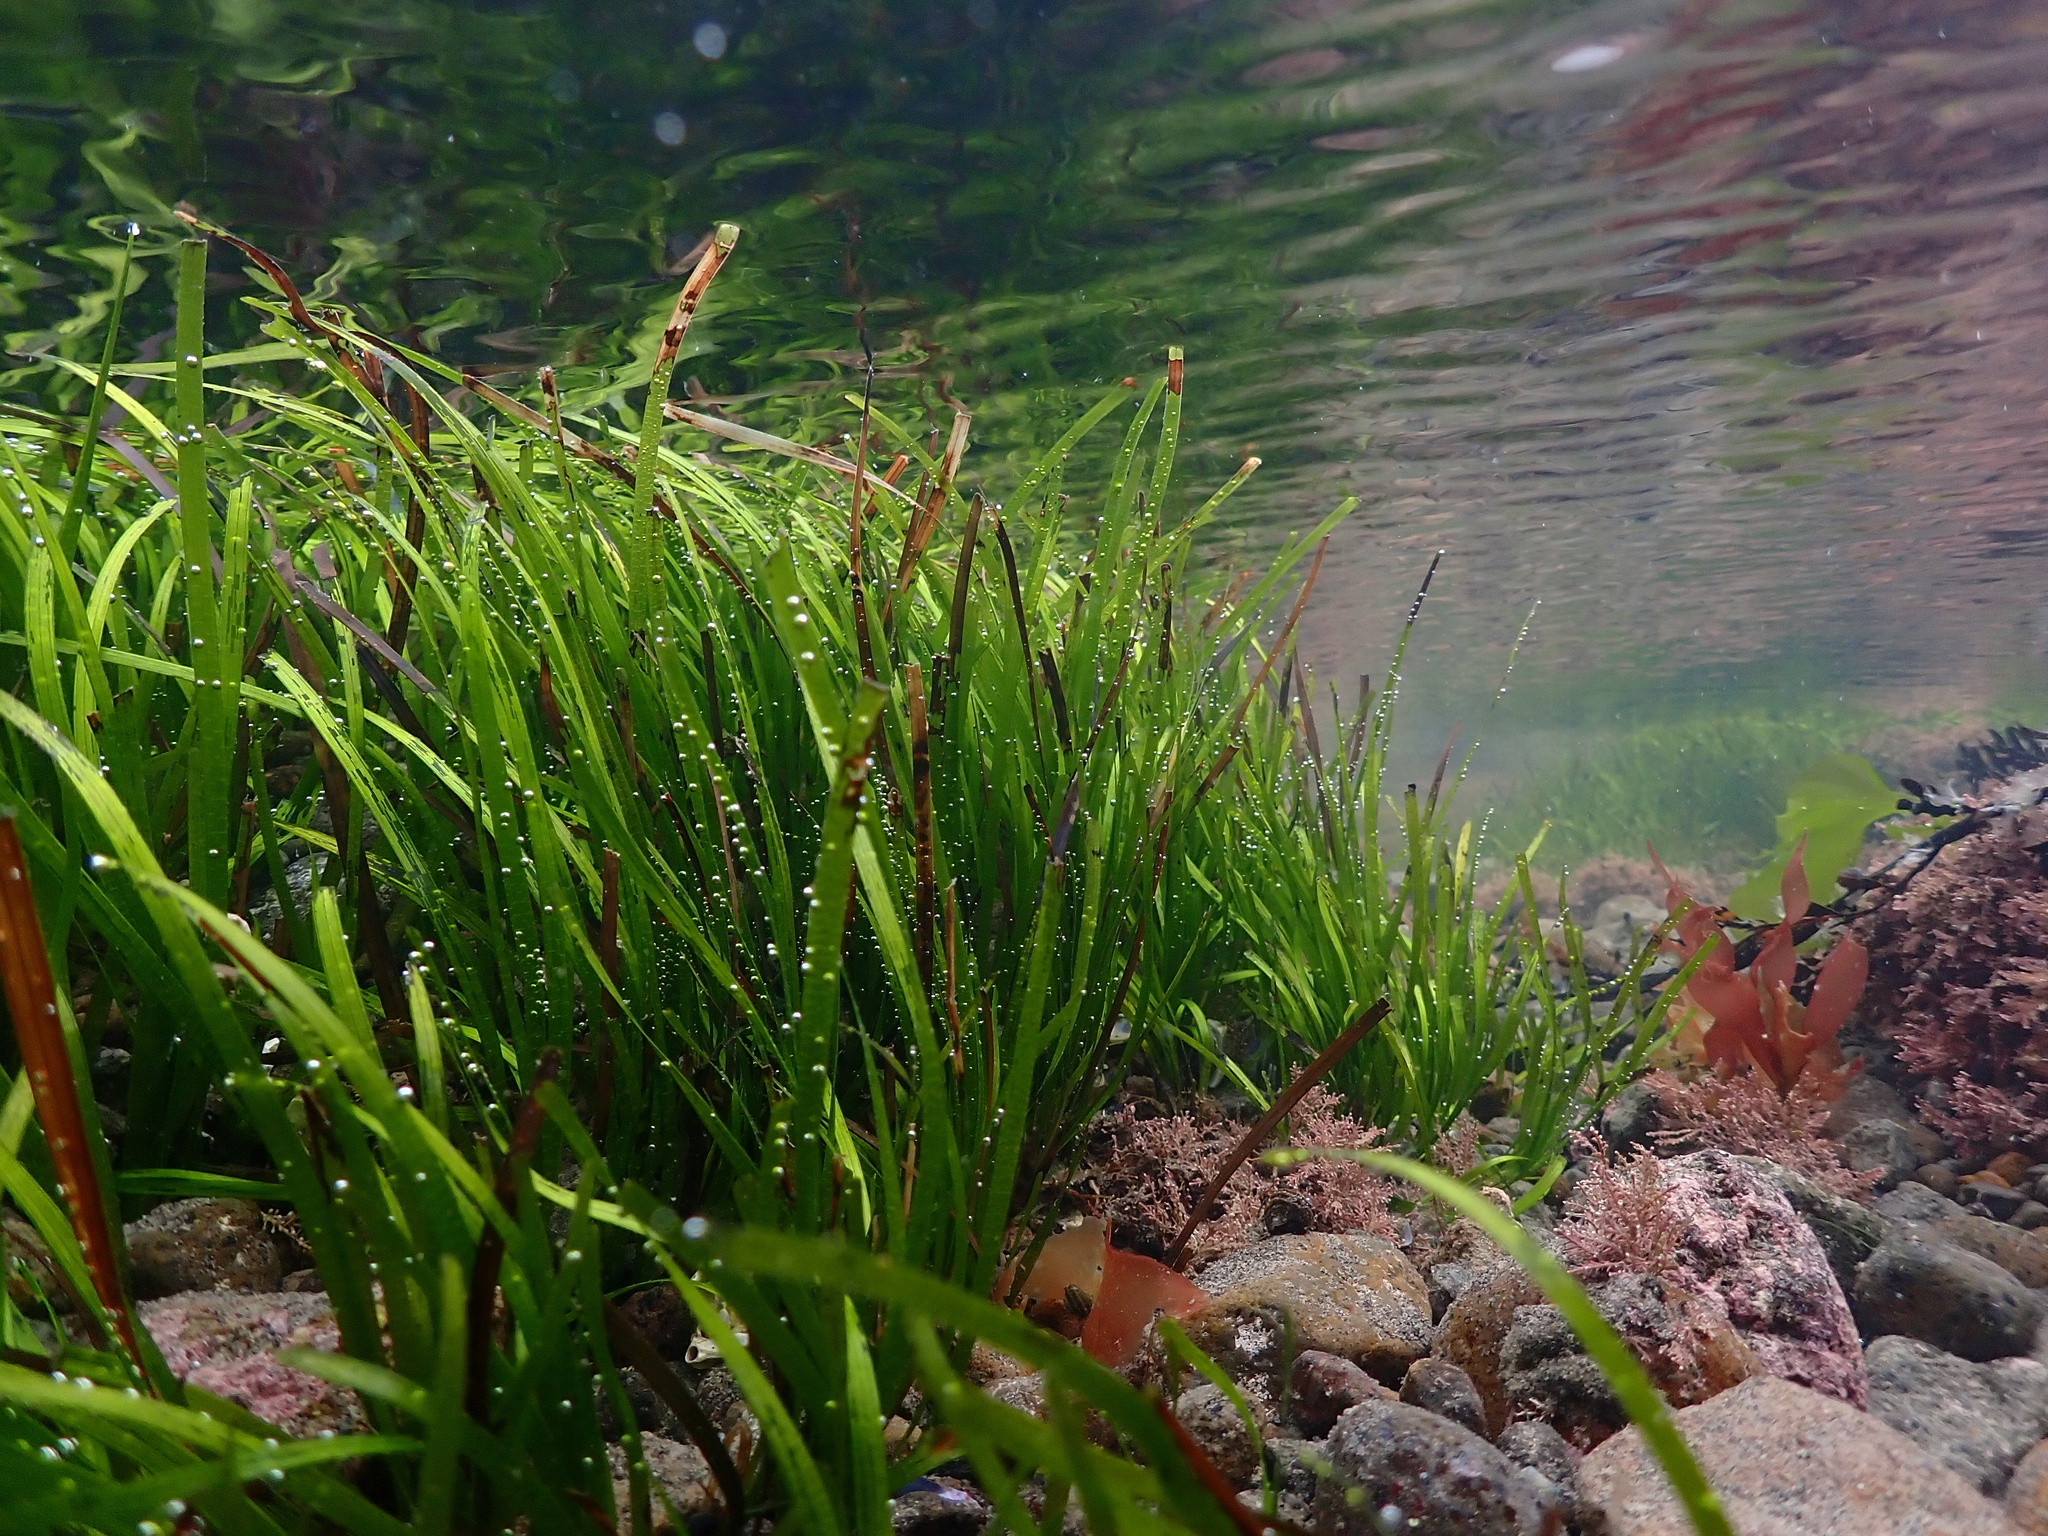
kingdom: Plantae
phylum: Tracheophyta
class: Liliopsida
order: Alismatales
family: Zosteraceae
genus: Zostera
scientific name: Zostera muelleri
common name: Species code: zc
